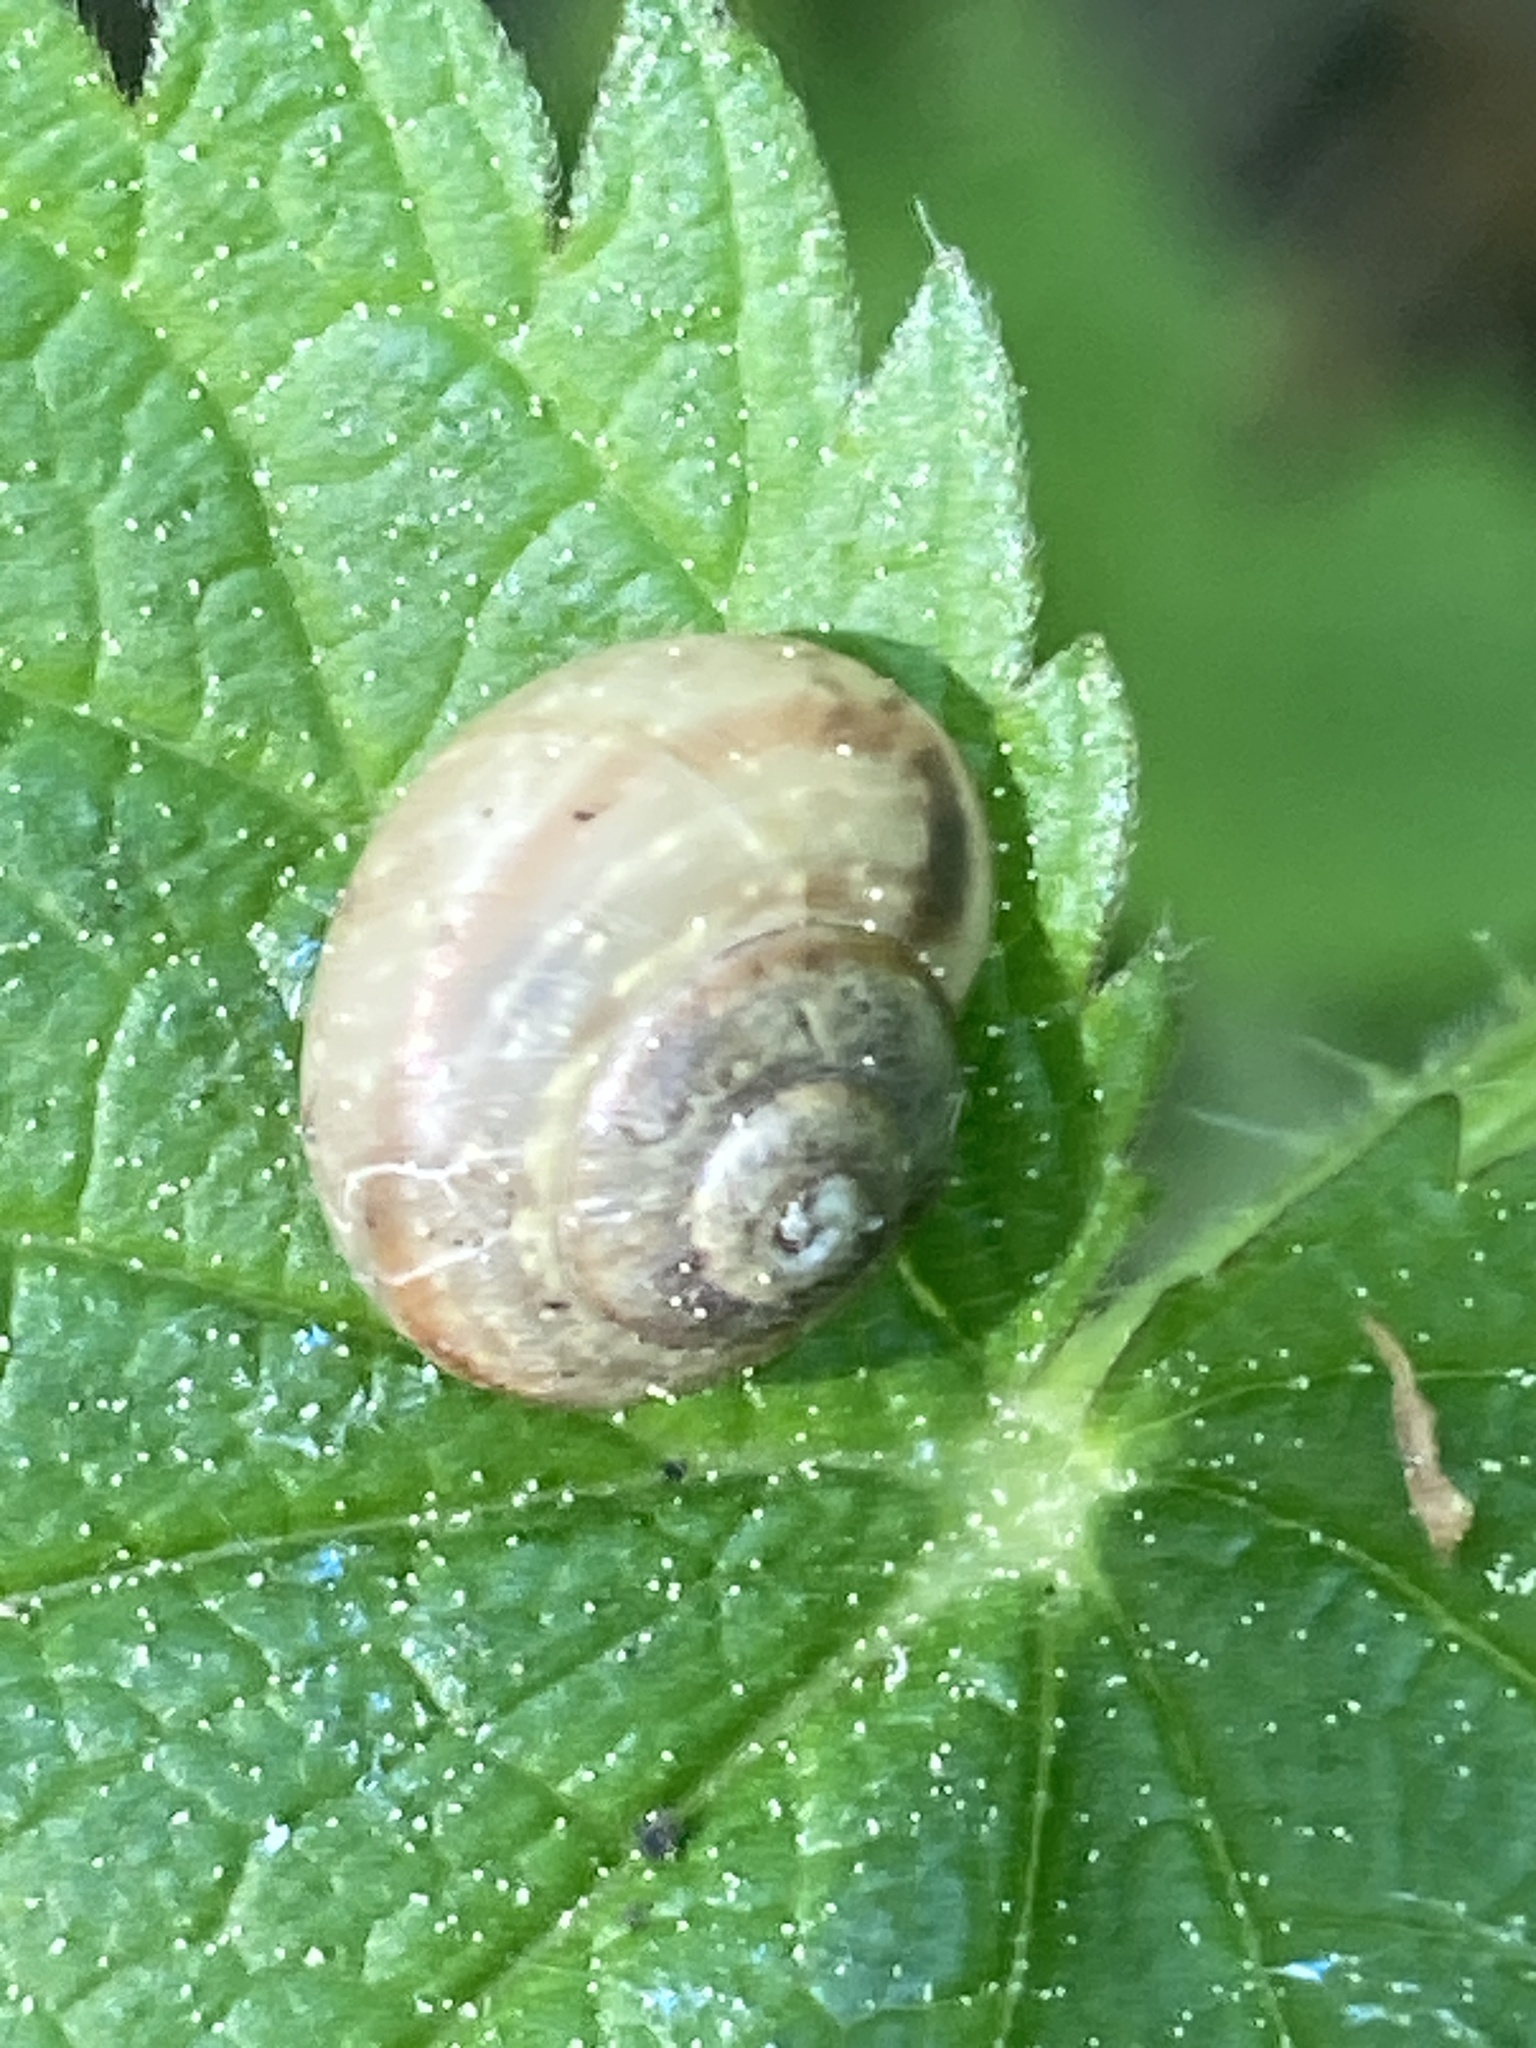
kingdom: Animalia
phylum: Mollusca
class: Gastropoda
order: Stylommatophora
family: Camaenidae
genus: Fruticicola
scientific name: Fruticicola fruticum
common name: Bush snail
